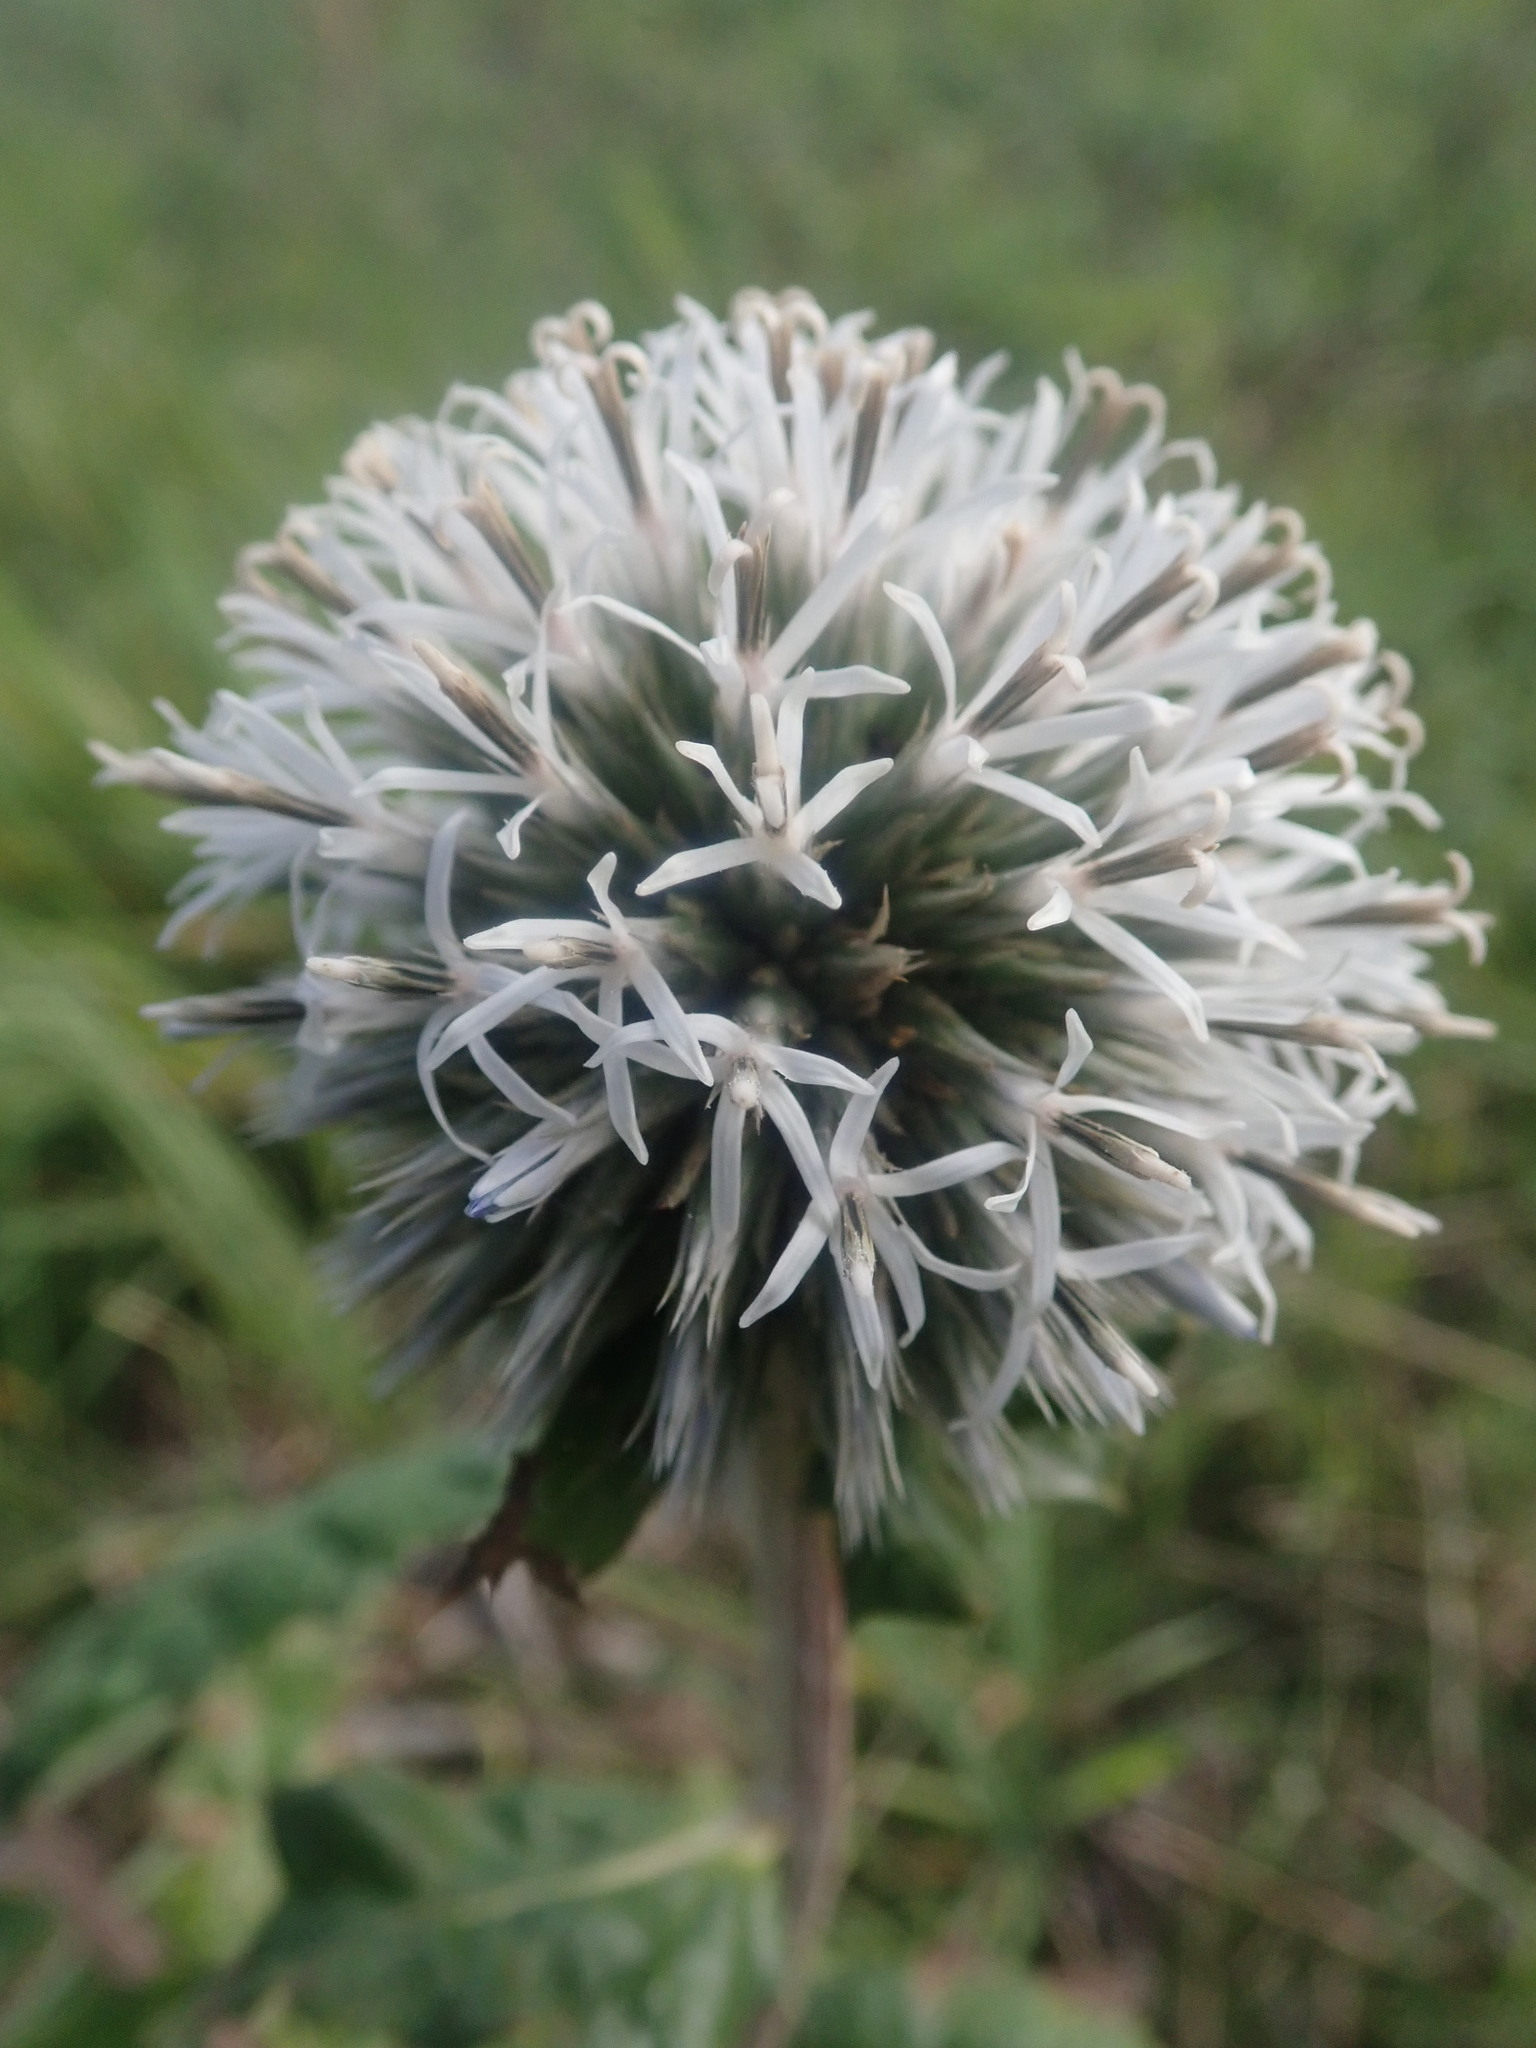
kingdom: Plantae
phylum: Tracheophyta
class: Magnoliopsida
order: Asterales
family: Asteraceae
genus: Echinops
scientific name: Echinops sphaerocephalus
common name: Glandular globe-thistle
